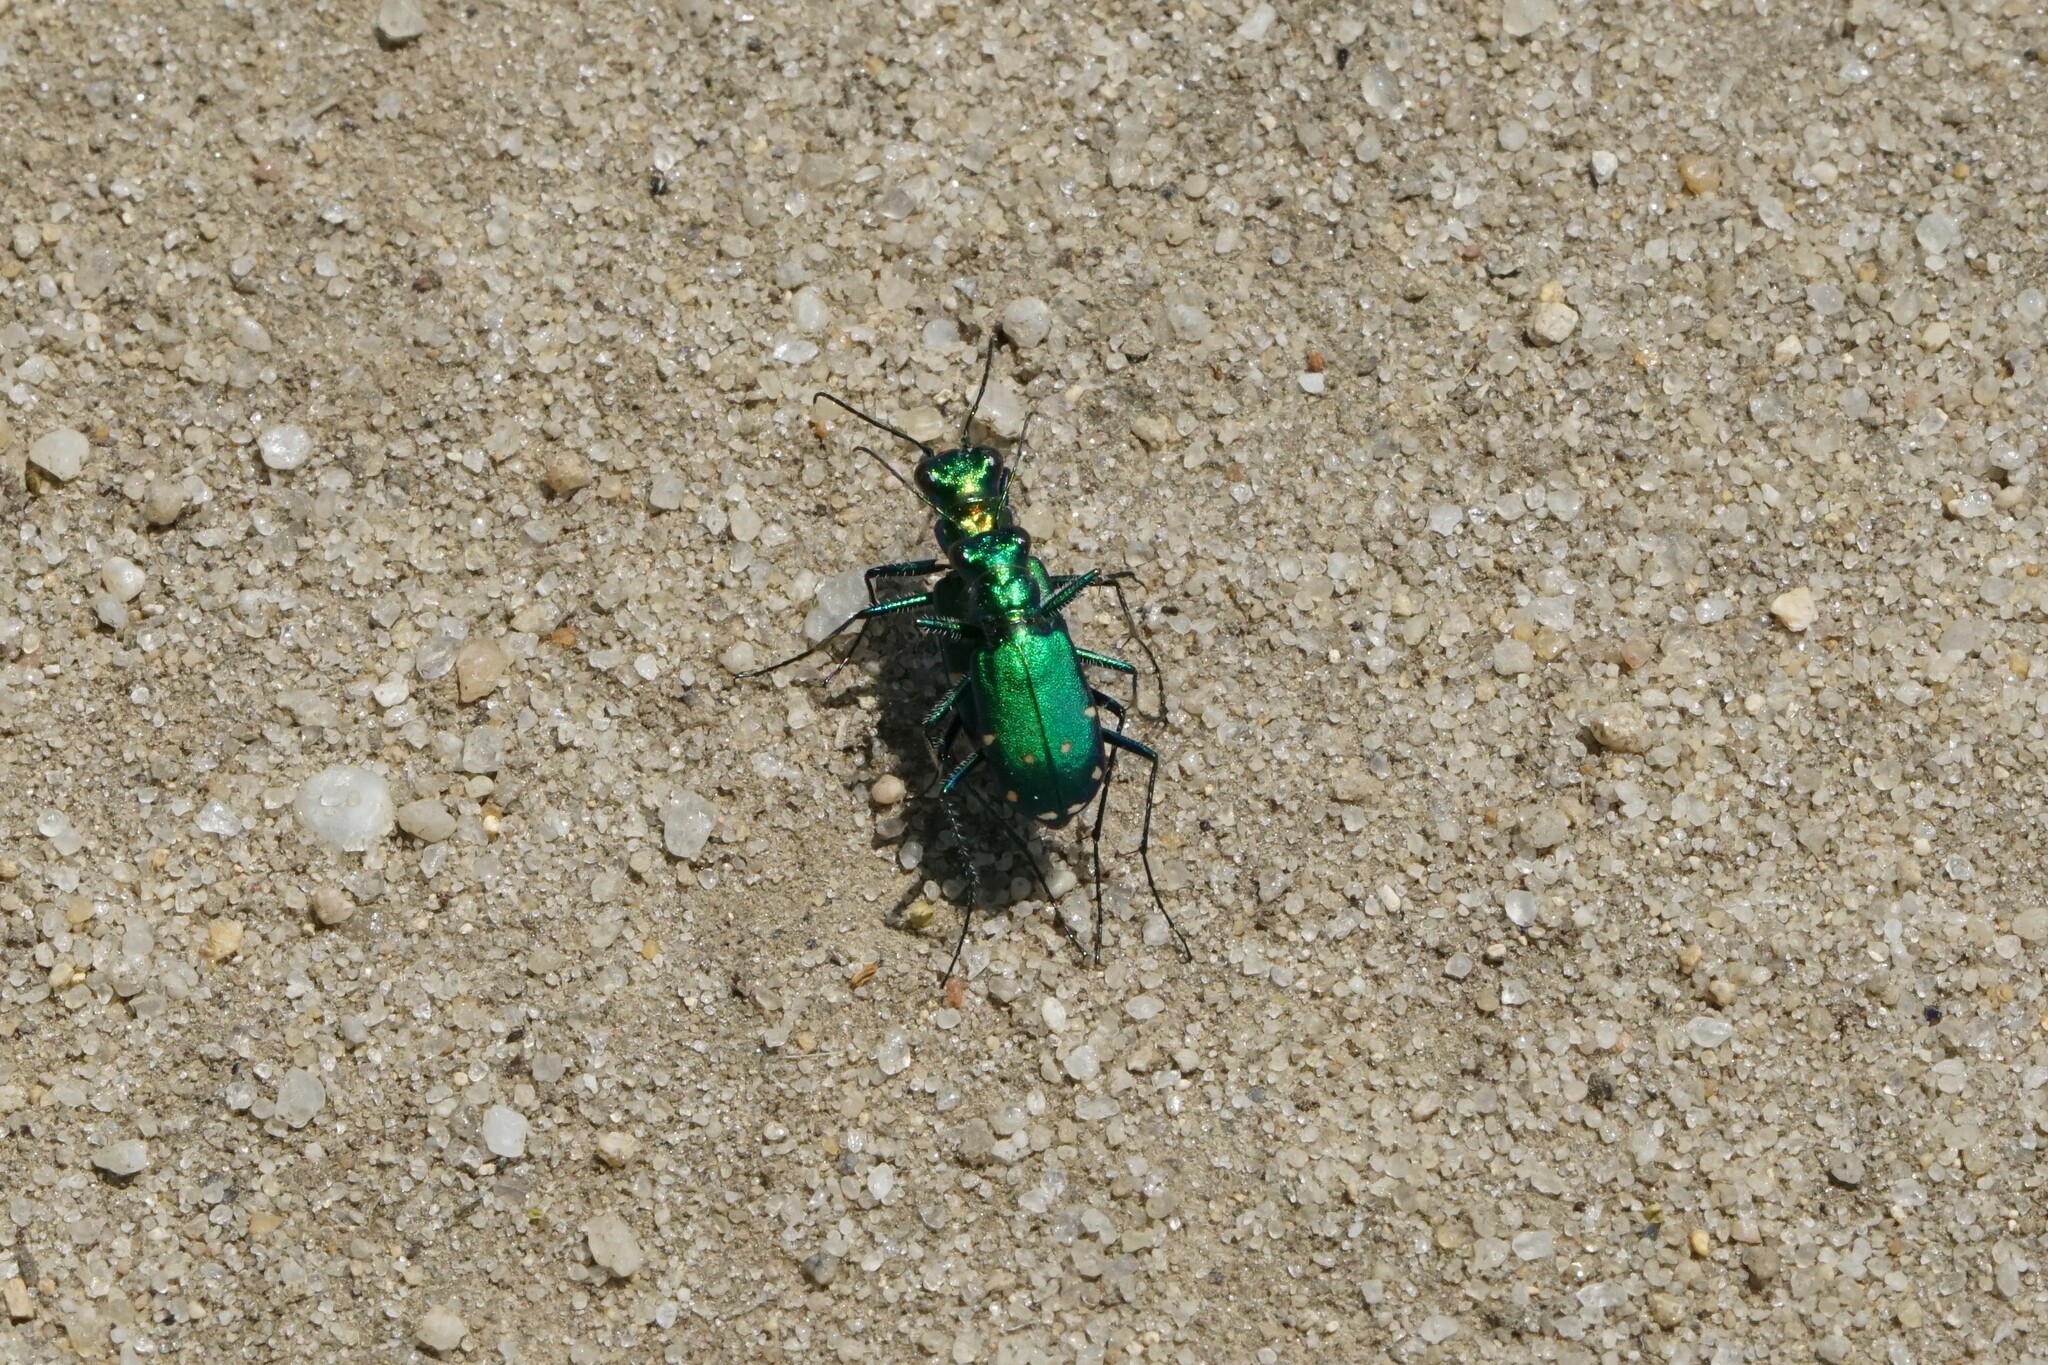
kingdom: Animalia
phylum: Arthropoda
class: Insecta
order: Coleoptera
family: Carabidae
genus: Cicindela
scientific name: Cicindela sexguttata
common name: Six-spotted tiger beetle
